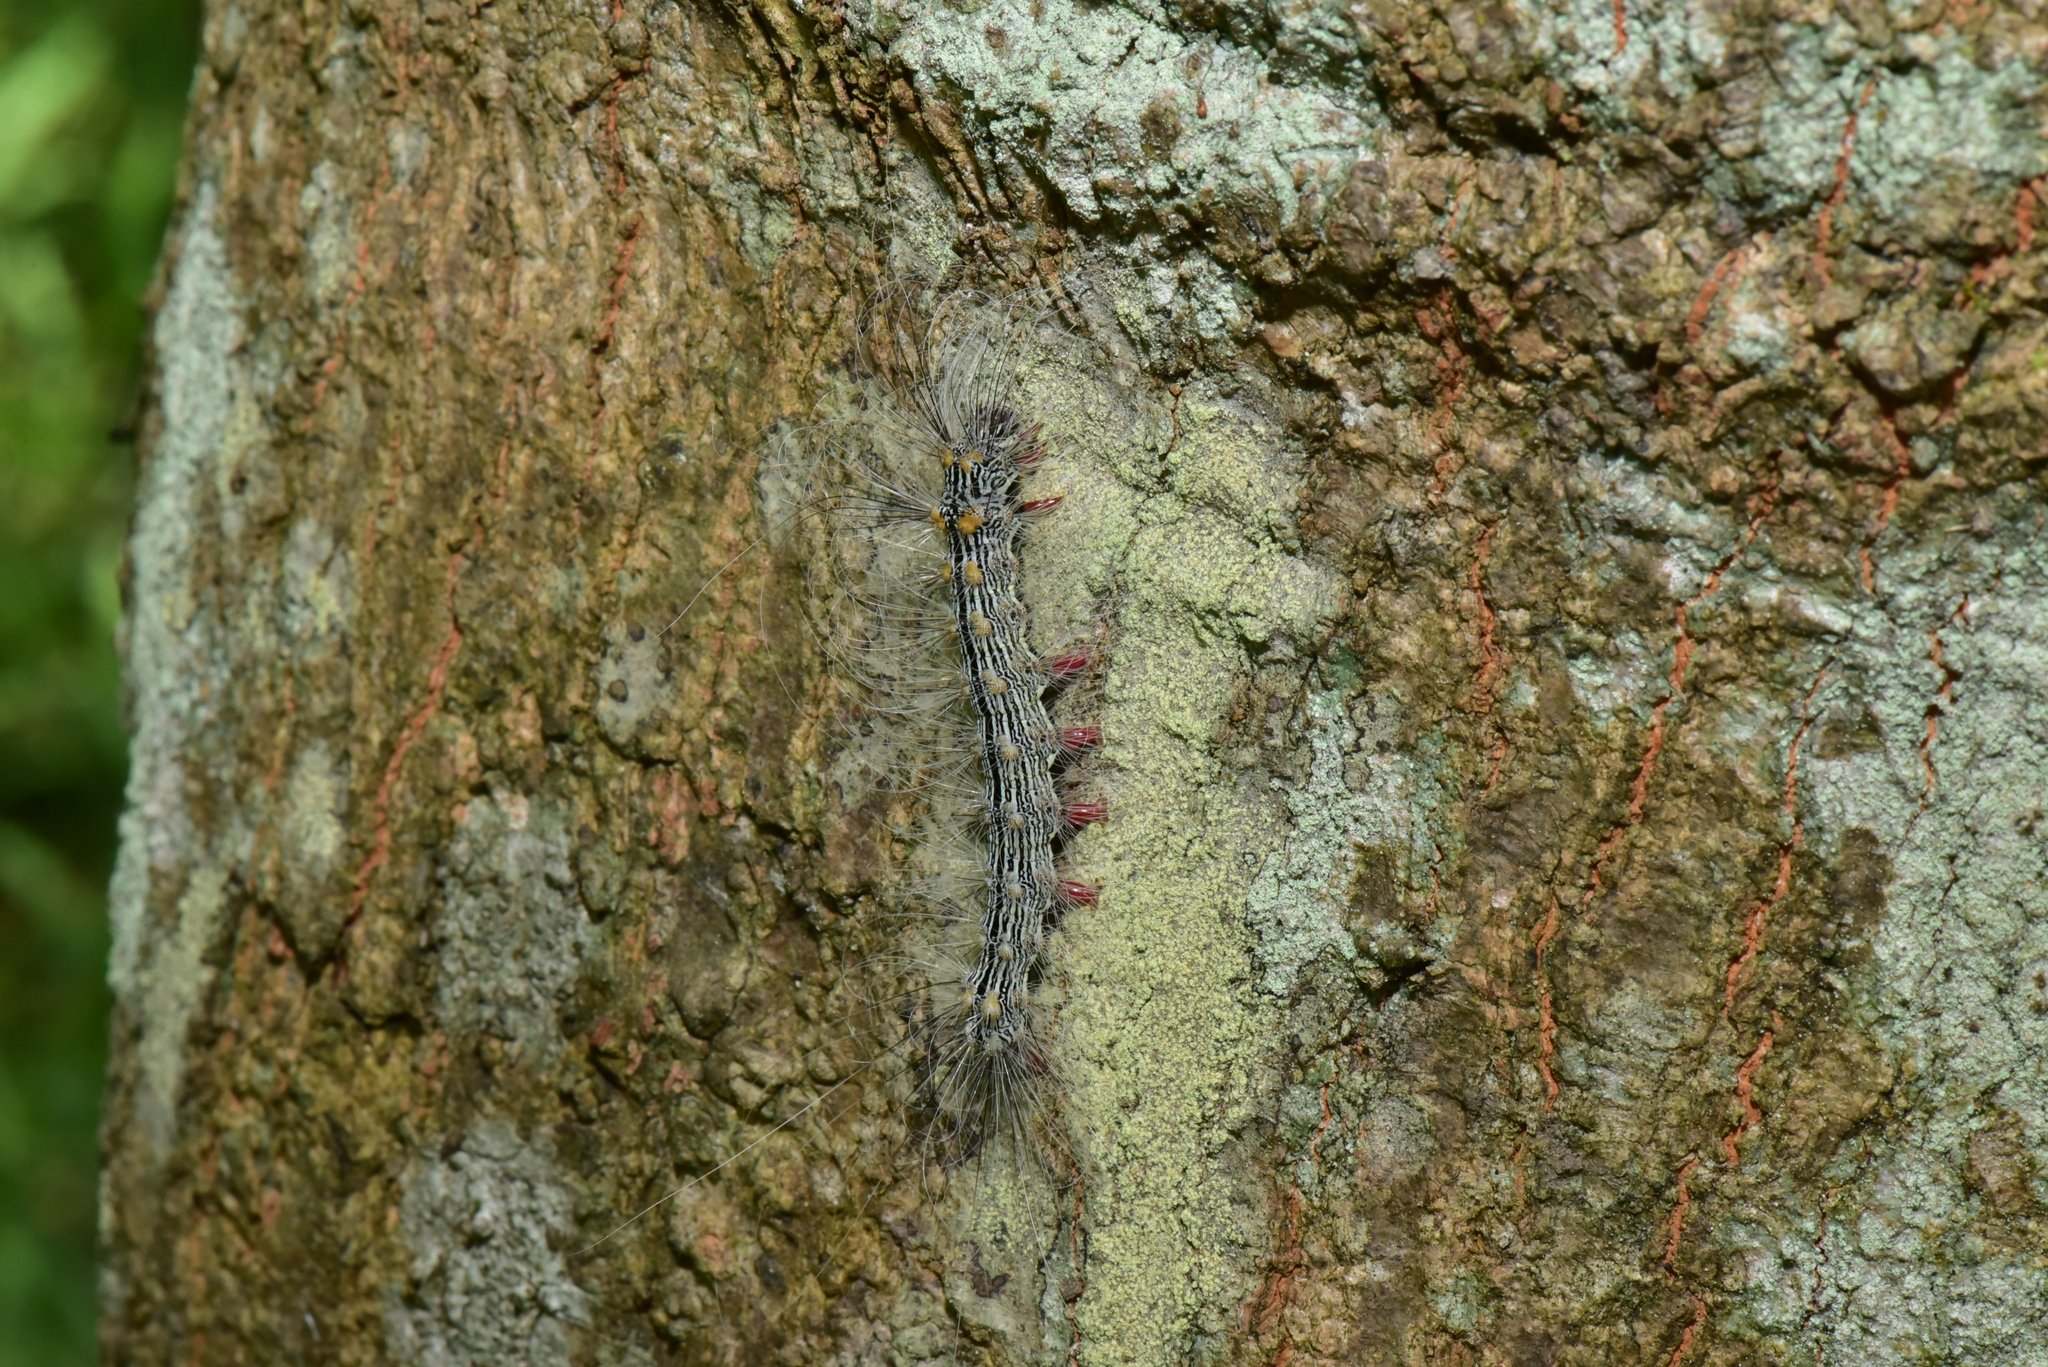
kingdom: Animalia
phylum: Arthropoda
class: Insecta
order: Lepidoptera
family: Erebidae
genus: Chrysaeglia
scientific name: Chrysaeglia magnifica
